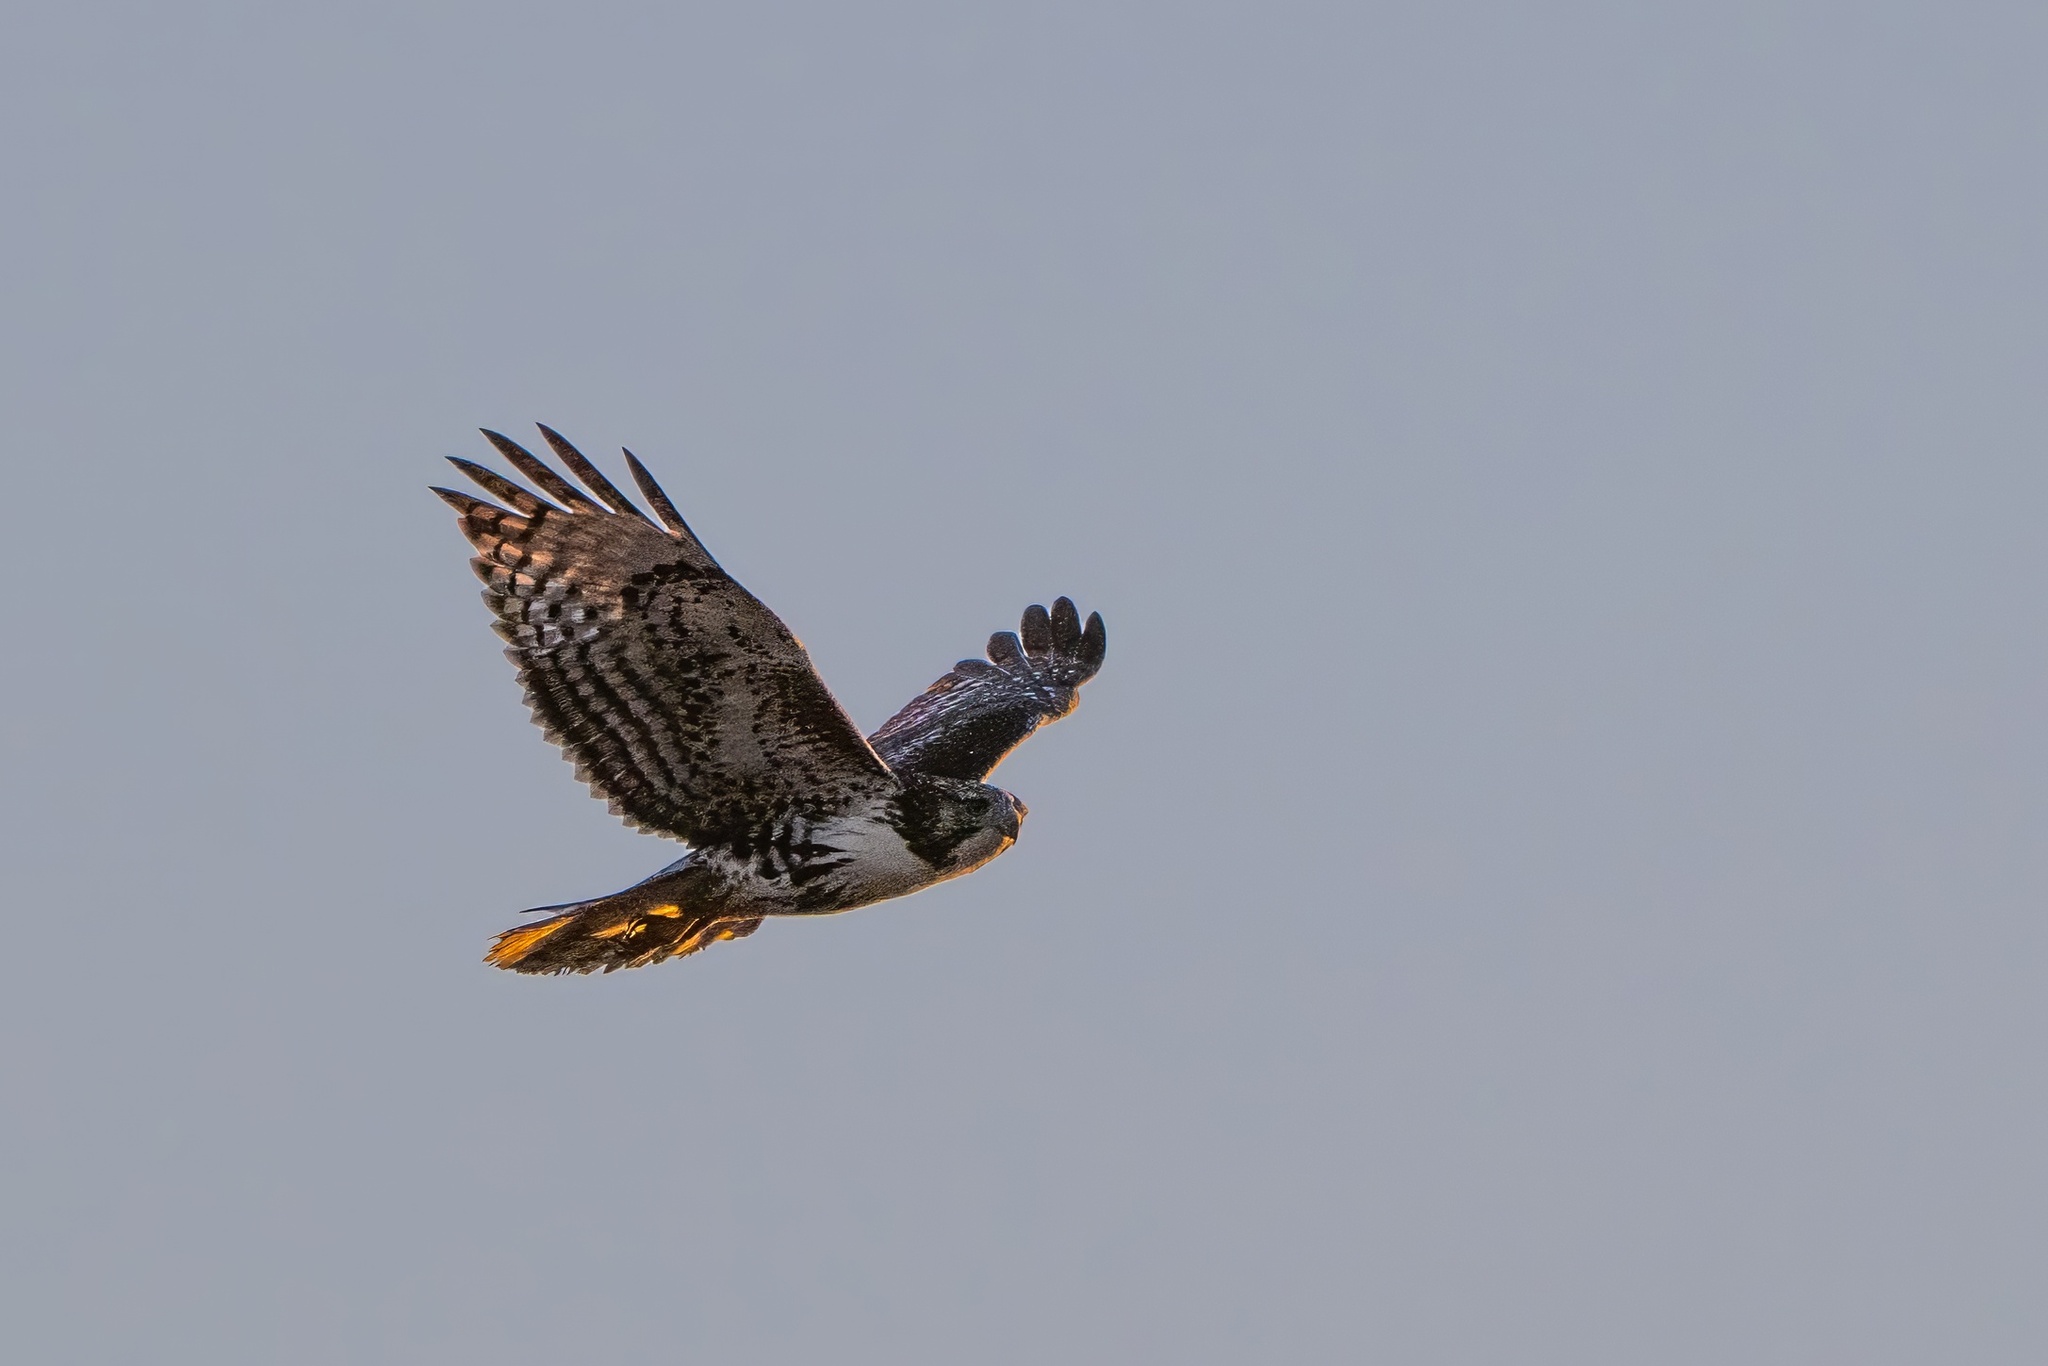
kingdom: Animalia
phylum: Chordata
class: Aves
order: Accipitriformes
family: Accipitridae
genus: Buteo
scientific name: Buteo jamaicensis
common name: Red-tailed hawk
